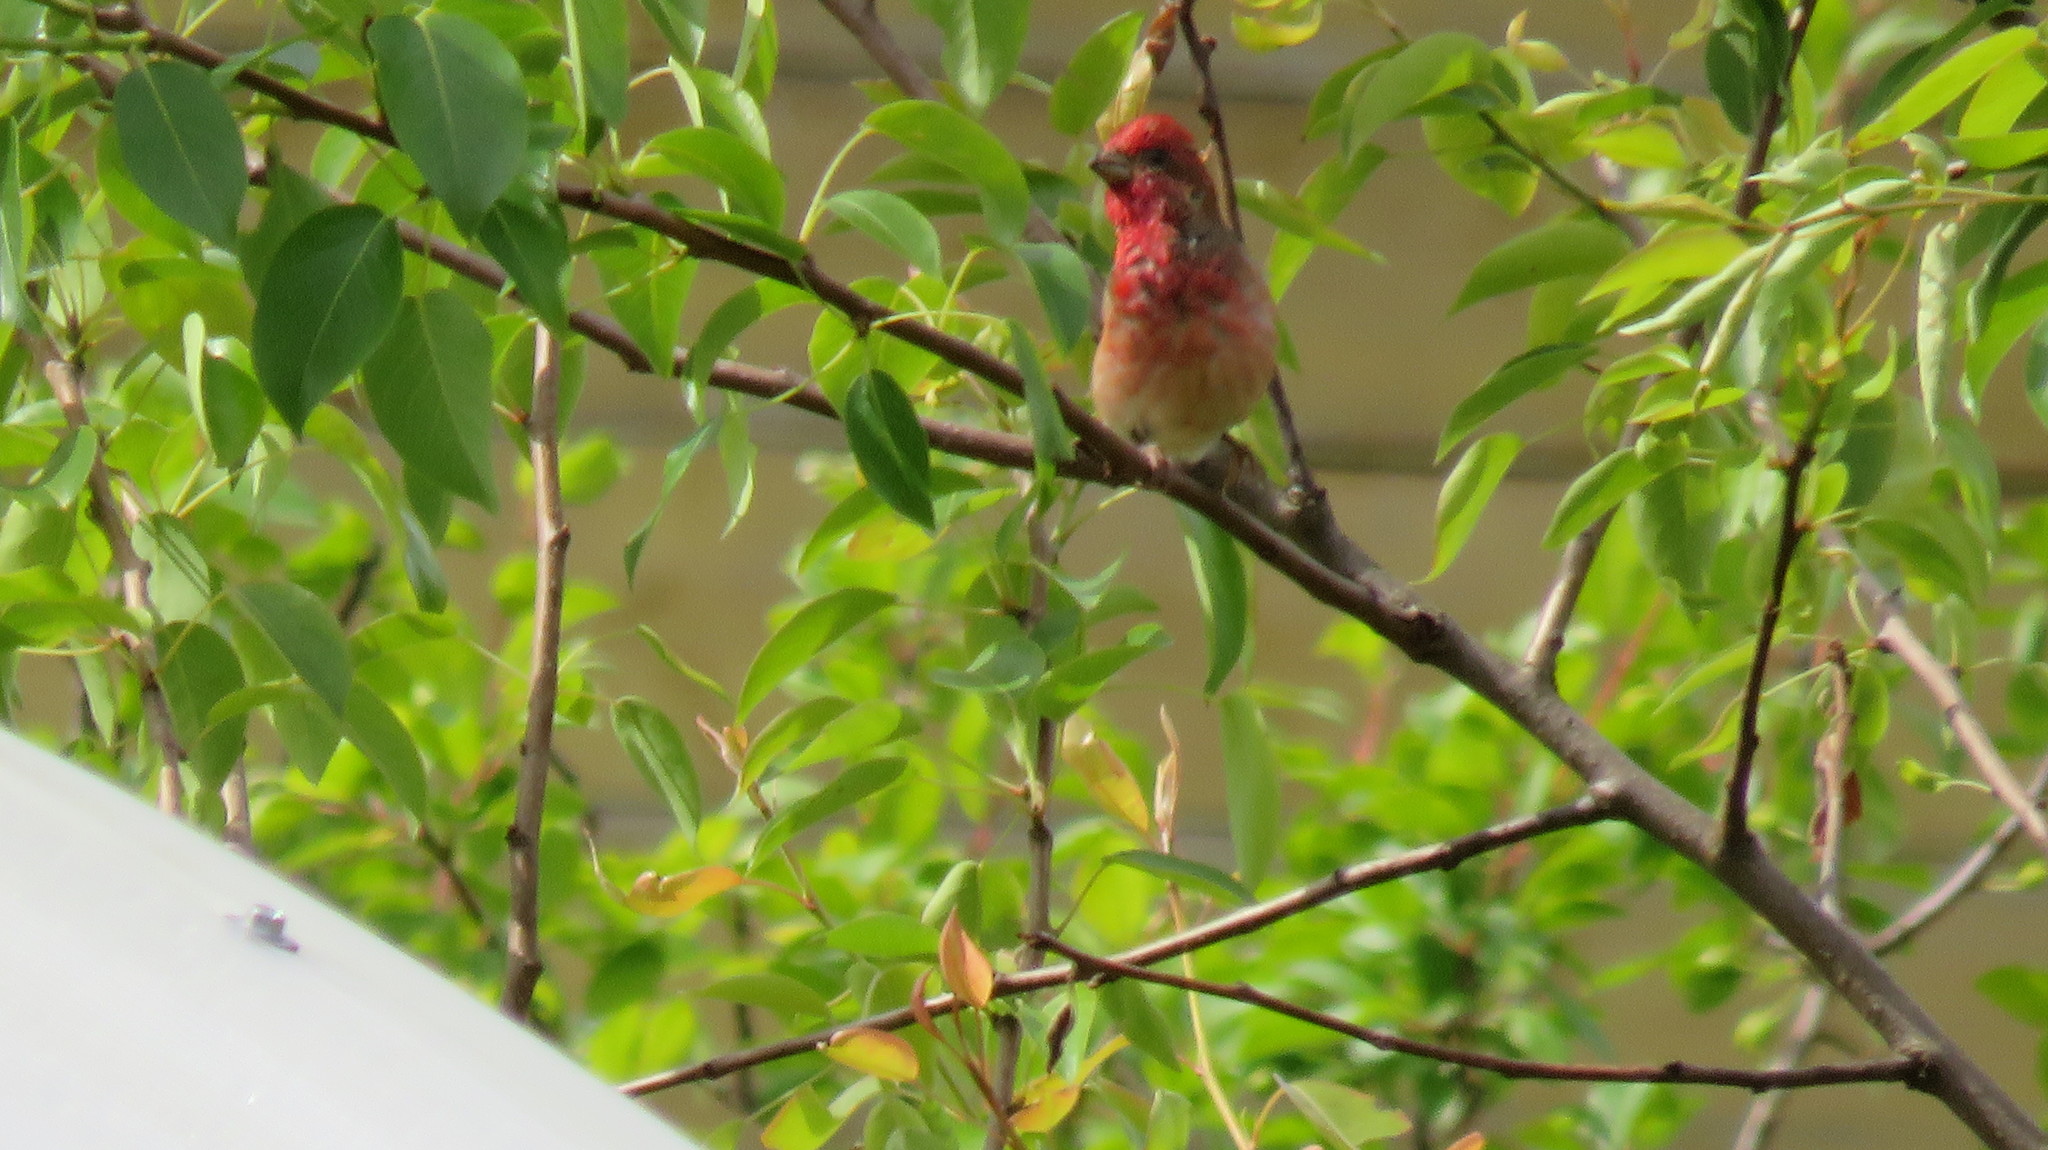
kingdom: Animalia
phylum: Chordata
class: Aves
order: Passeriformes
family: Fringillidae
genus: Carpodacus
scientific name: Carpodacus erythrinus
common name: Common rosefinch
